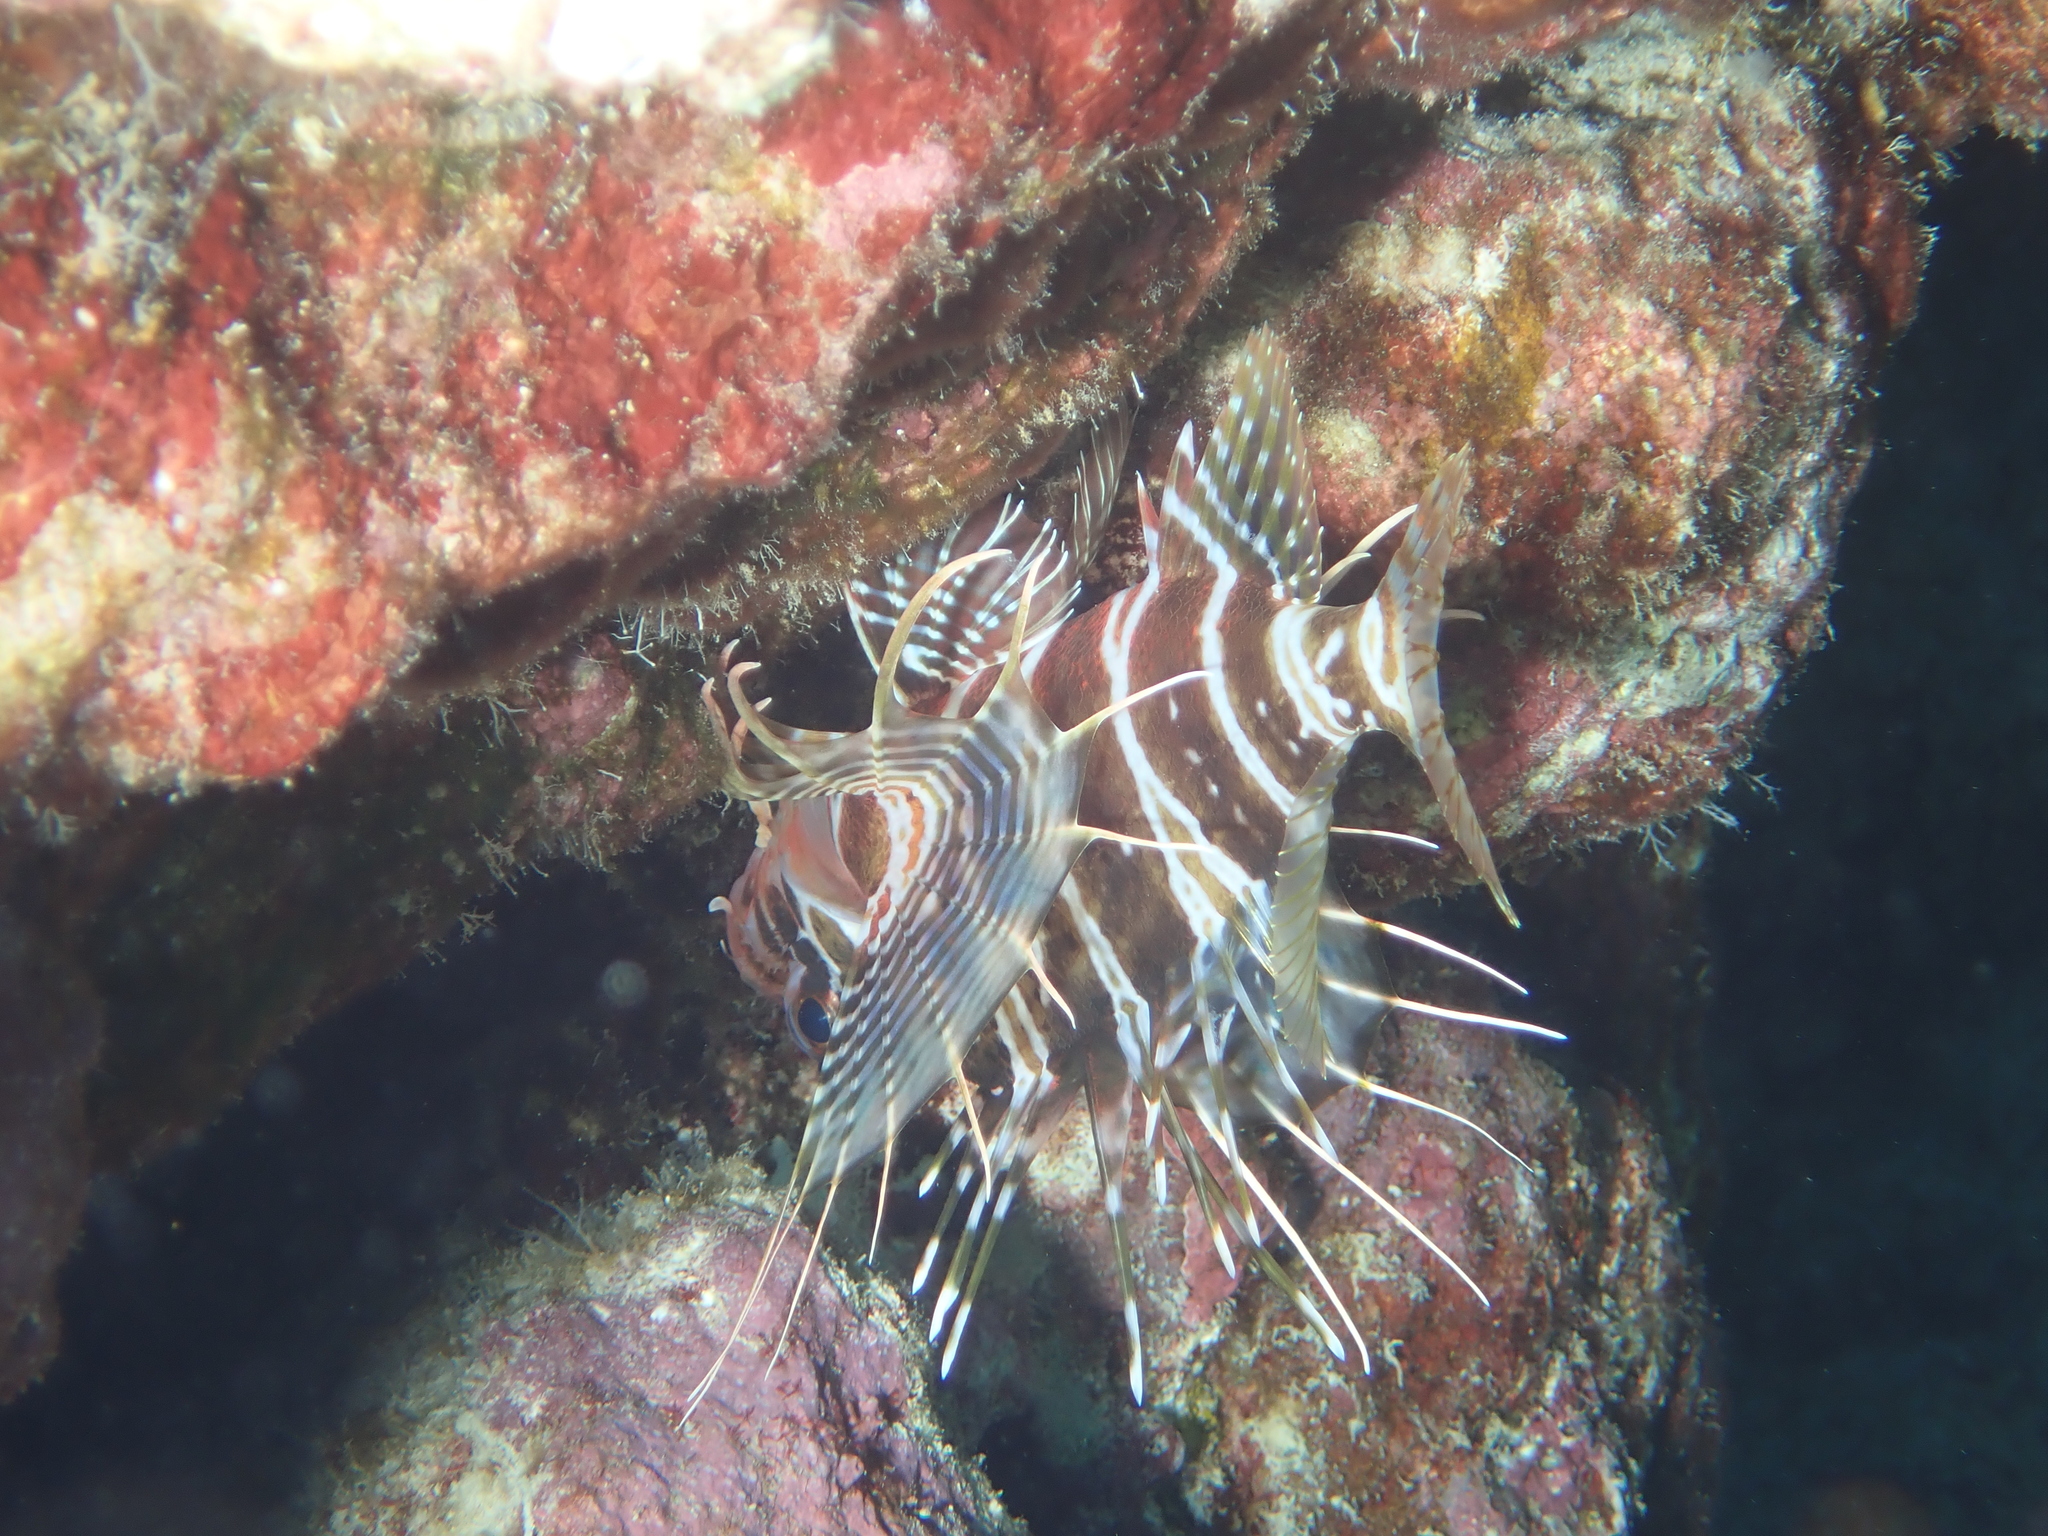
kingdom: Animalia
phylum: Chordata
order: Scorpaeniformes
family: Scorpaenidae
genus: Pterois
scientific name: Pterois sphex
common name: Hawaiian turkeyfish
